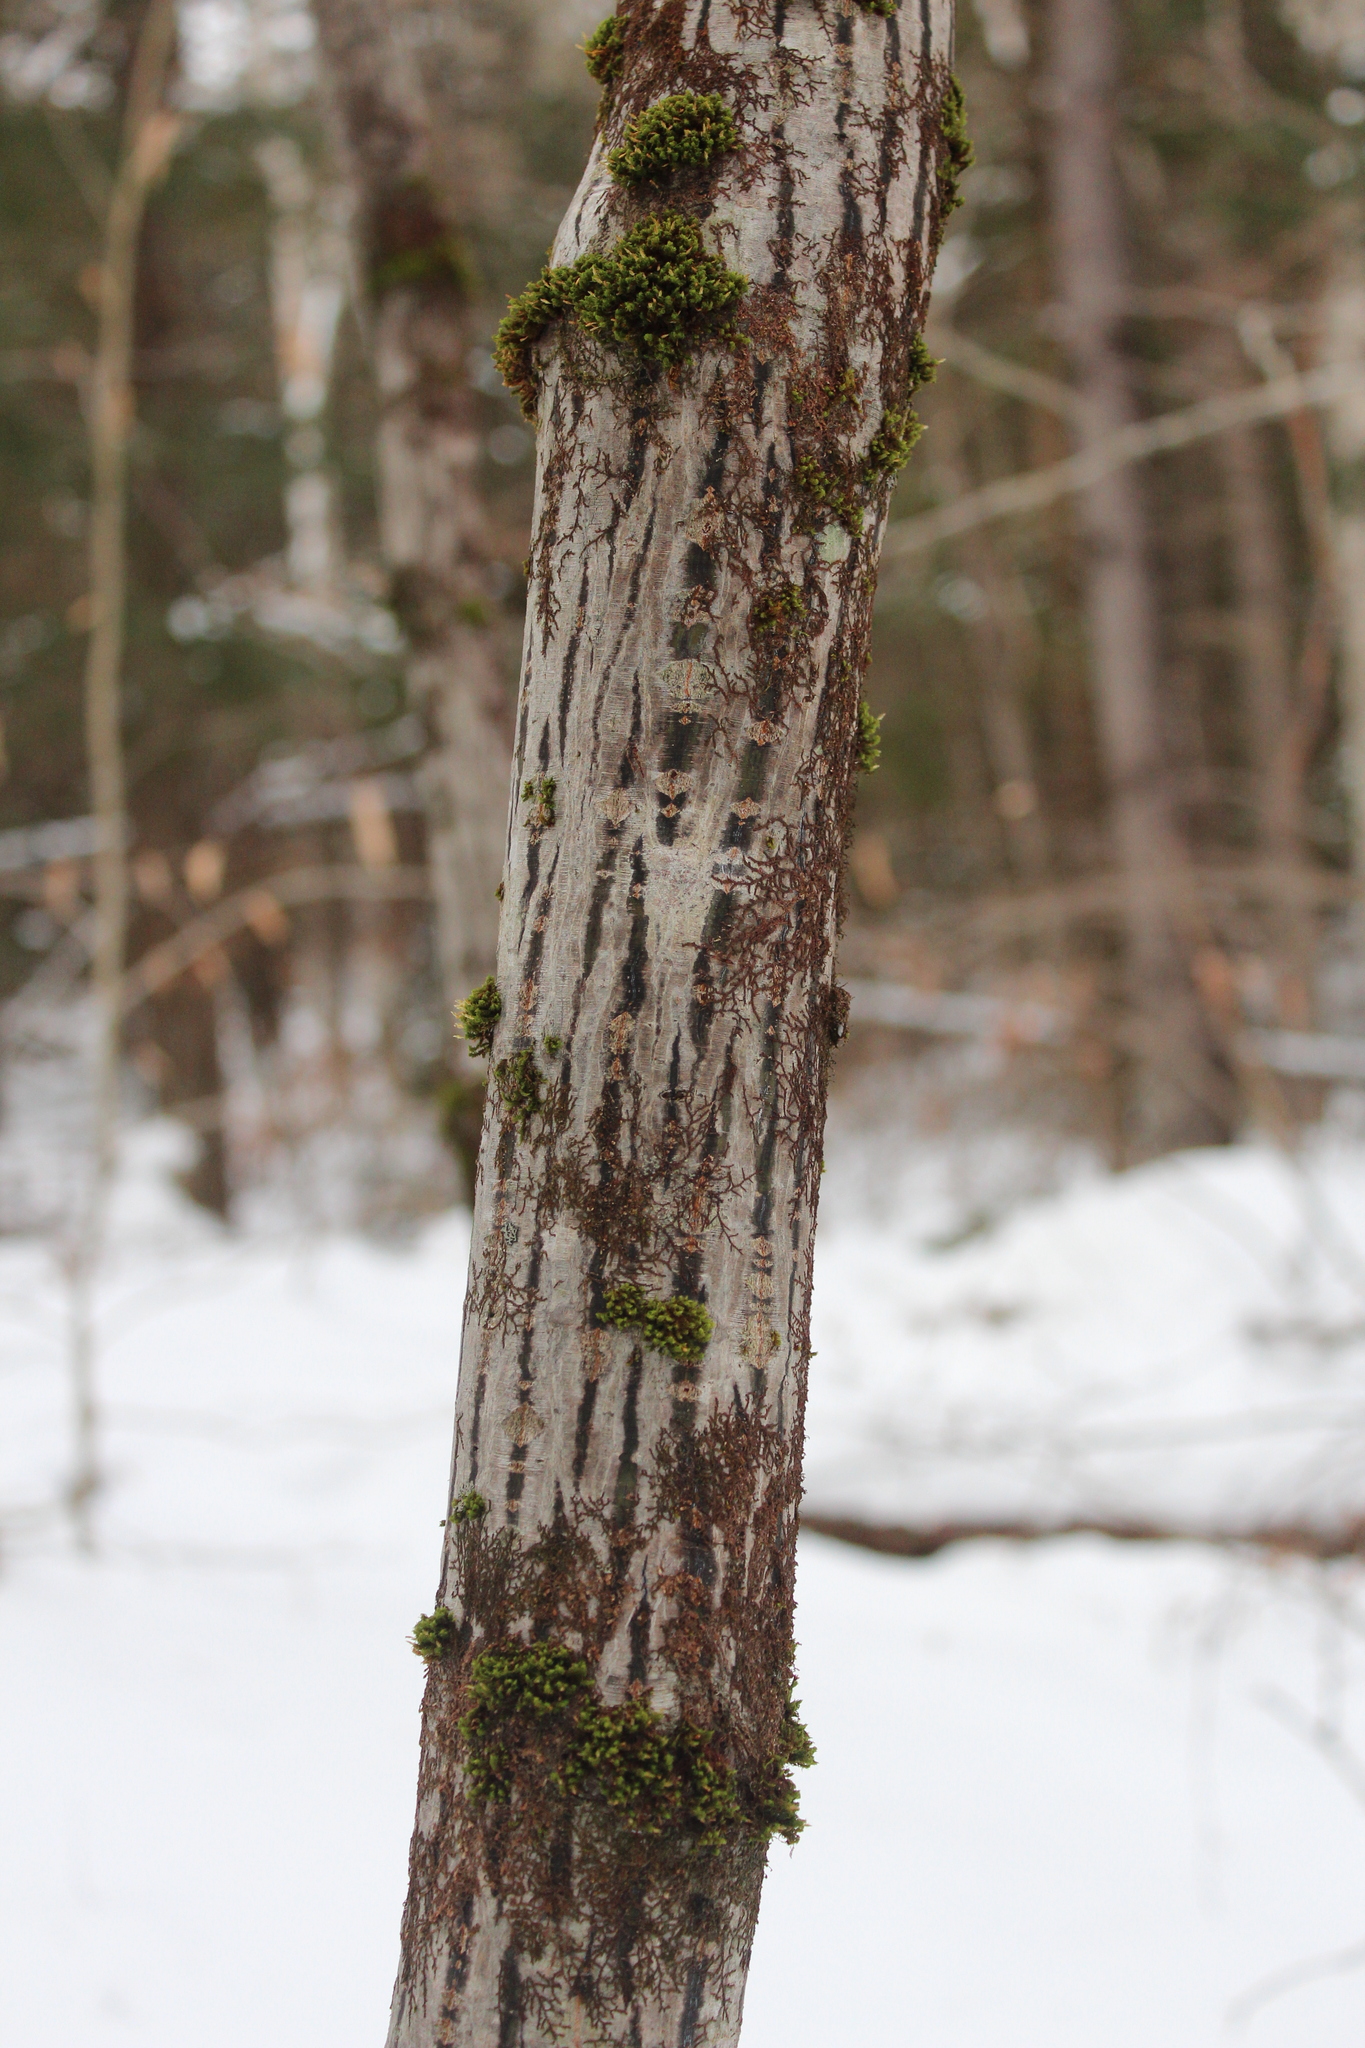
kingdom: Plantae
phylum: Tracheophyta
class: Magnoliopsida
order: Sapindales
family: Sapindaceae
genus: Acer
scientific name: Acer pensylvanicum
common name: Moosewood
